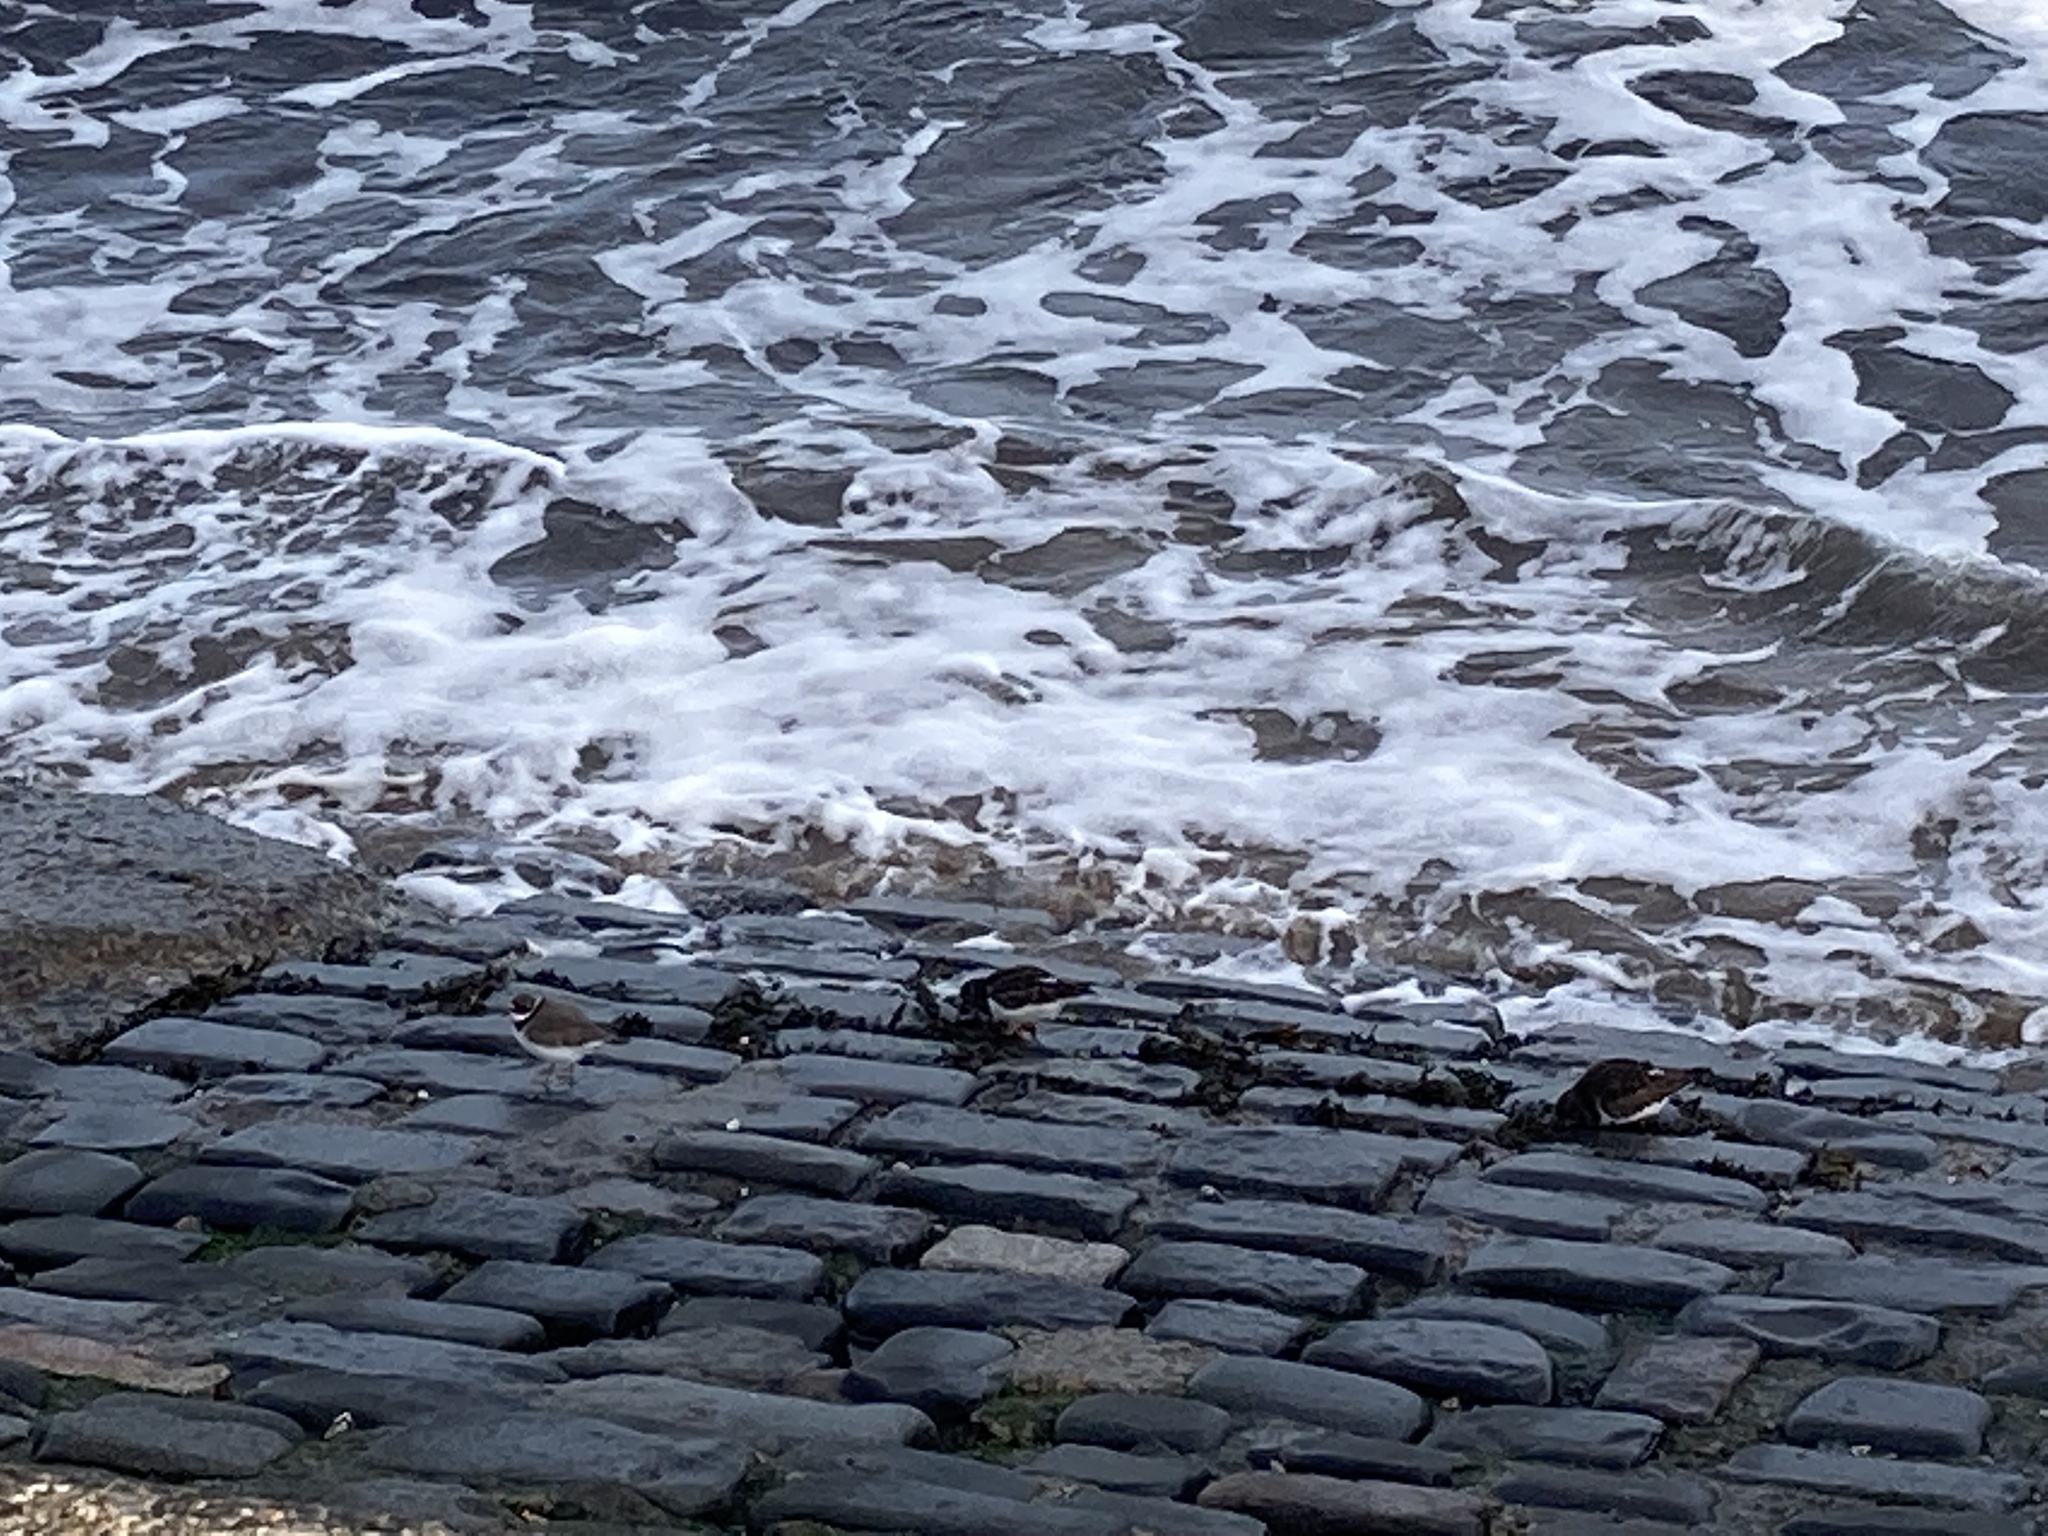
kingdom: Animalia
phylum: Chordata
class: Aves
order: Charadriiformes
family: Charadriidae
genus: Charadrius
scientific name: Charadrius hiaticula
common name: Common ringed plover
